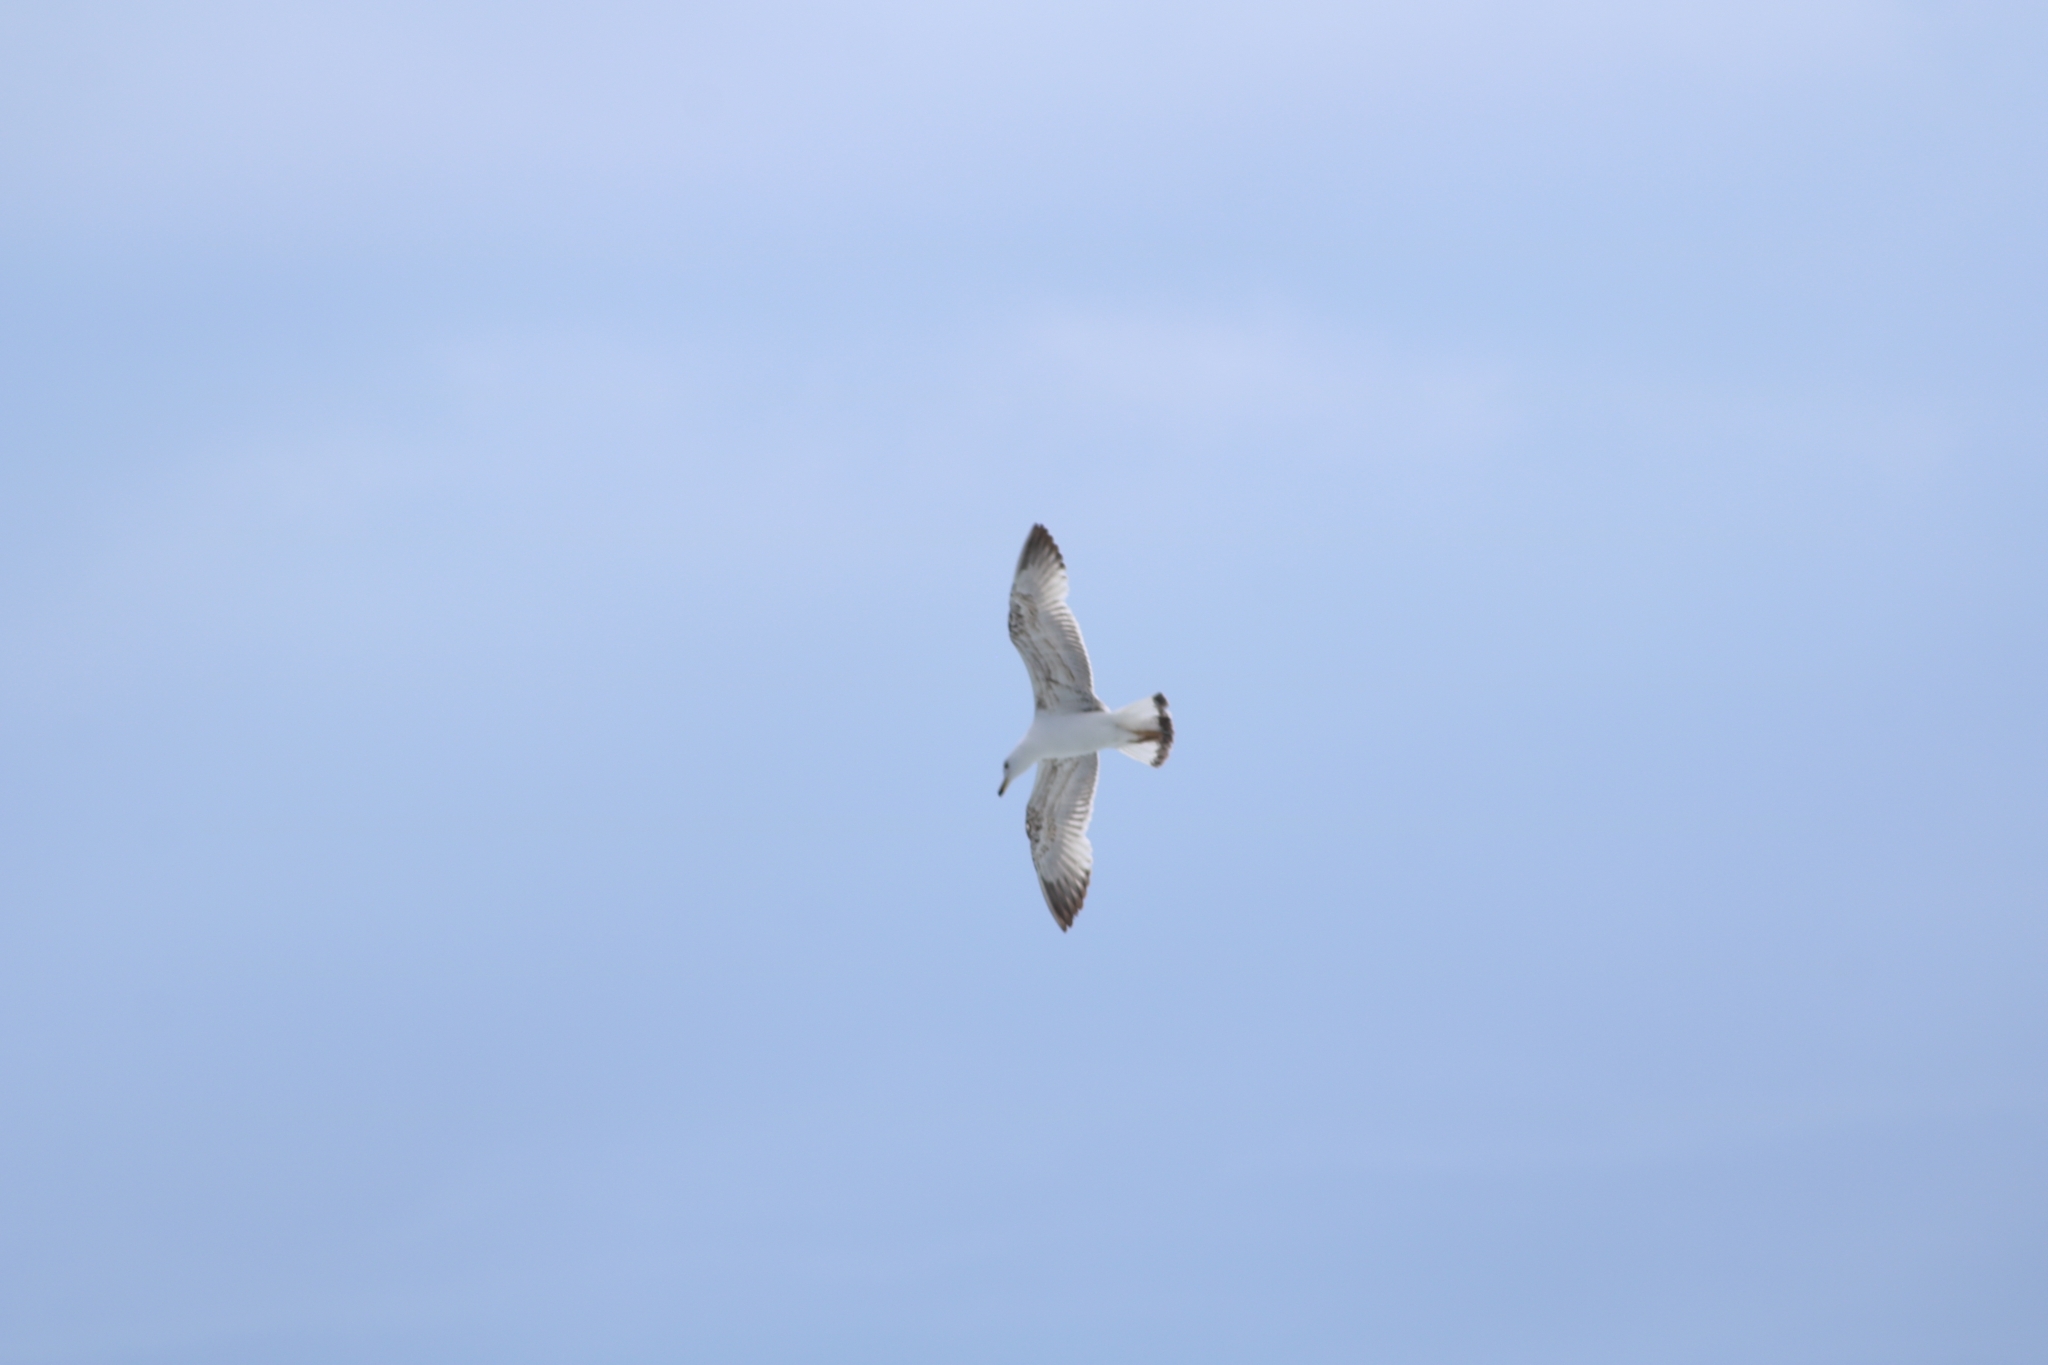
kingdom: Animalia
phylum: Chordata
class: Aves
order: Charadriiformes
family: Laridae
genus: Larus
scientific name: Larus michahellis
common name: Yellow-legged gull
